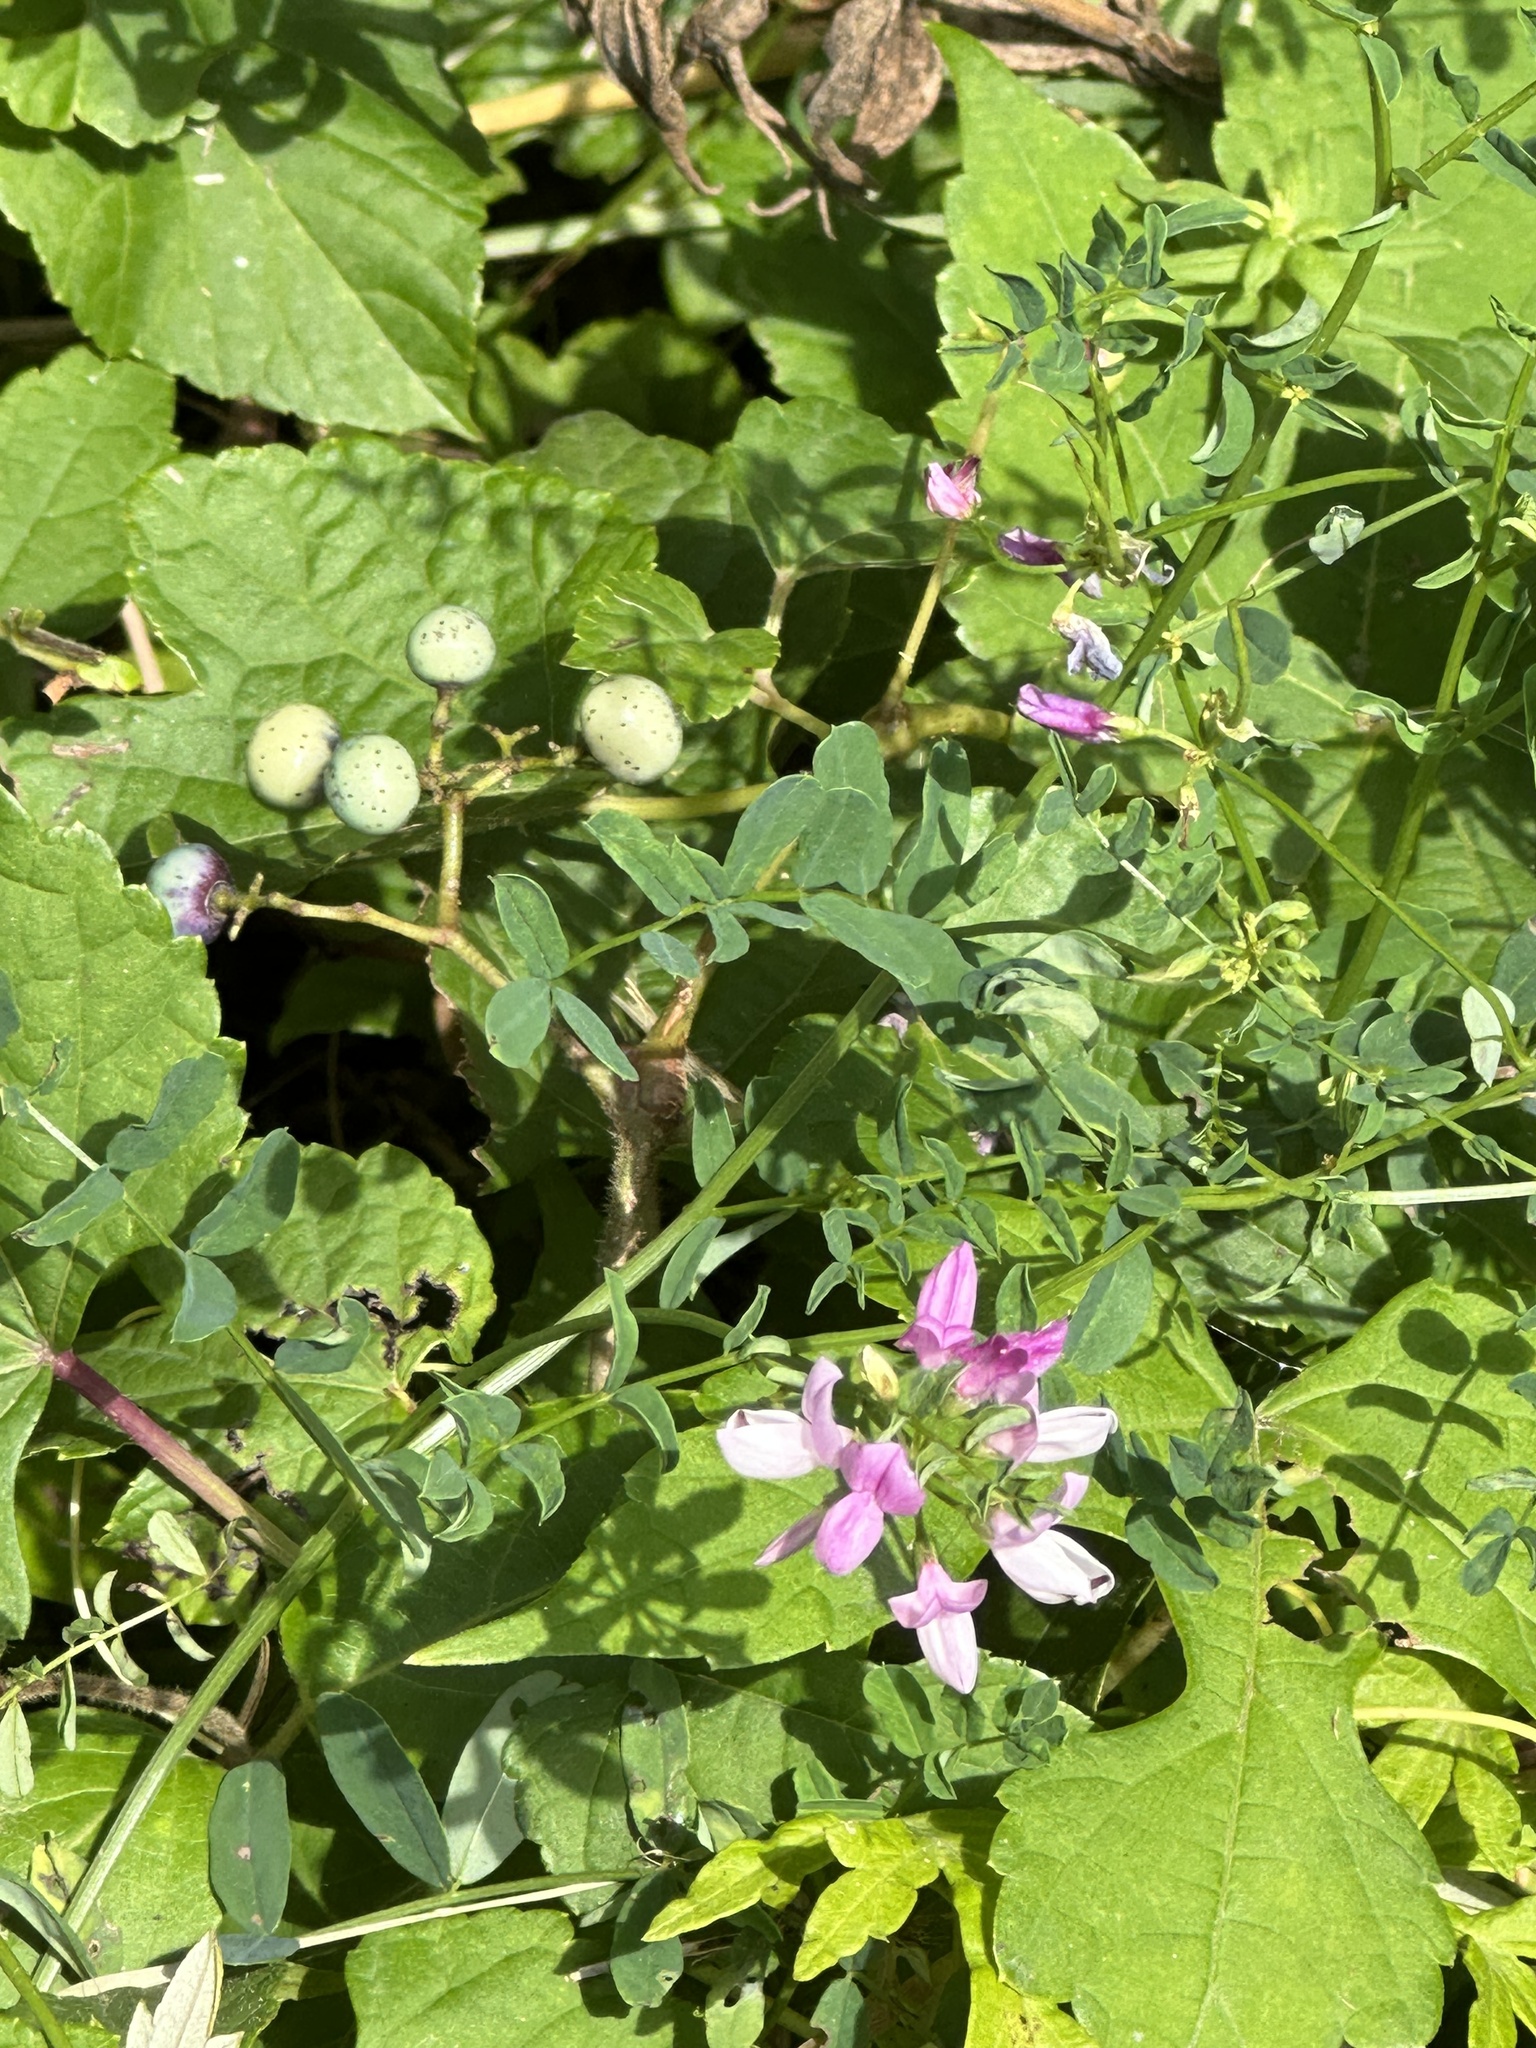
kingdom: Plantae
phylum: Tracheophyta
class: Magnoliopsida
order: Fabales
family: Fabaceae
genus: Coronilla
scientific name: Coronilla varia
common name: Crownvetch
